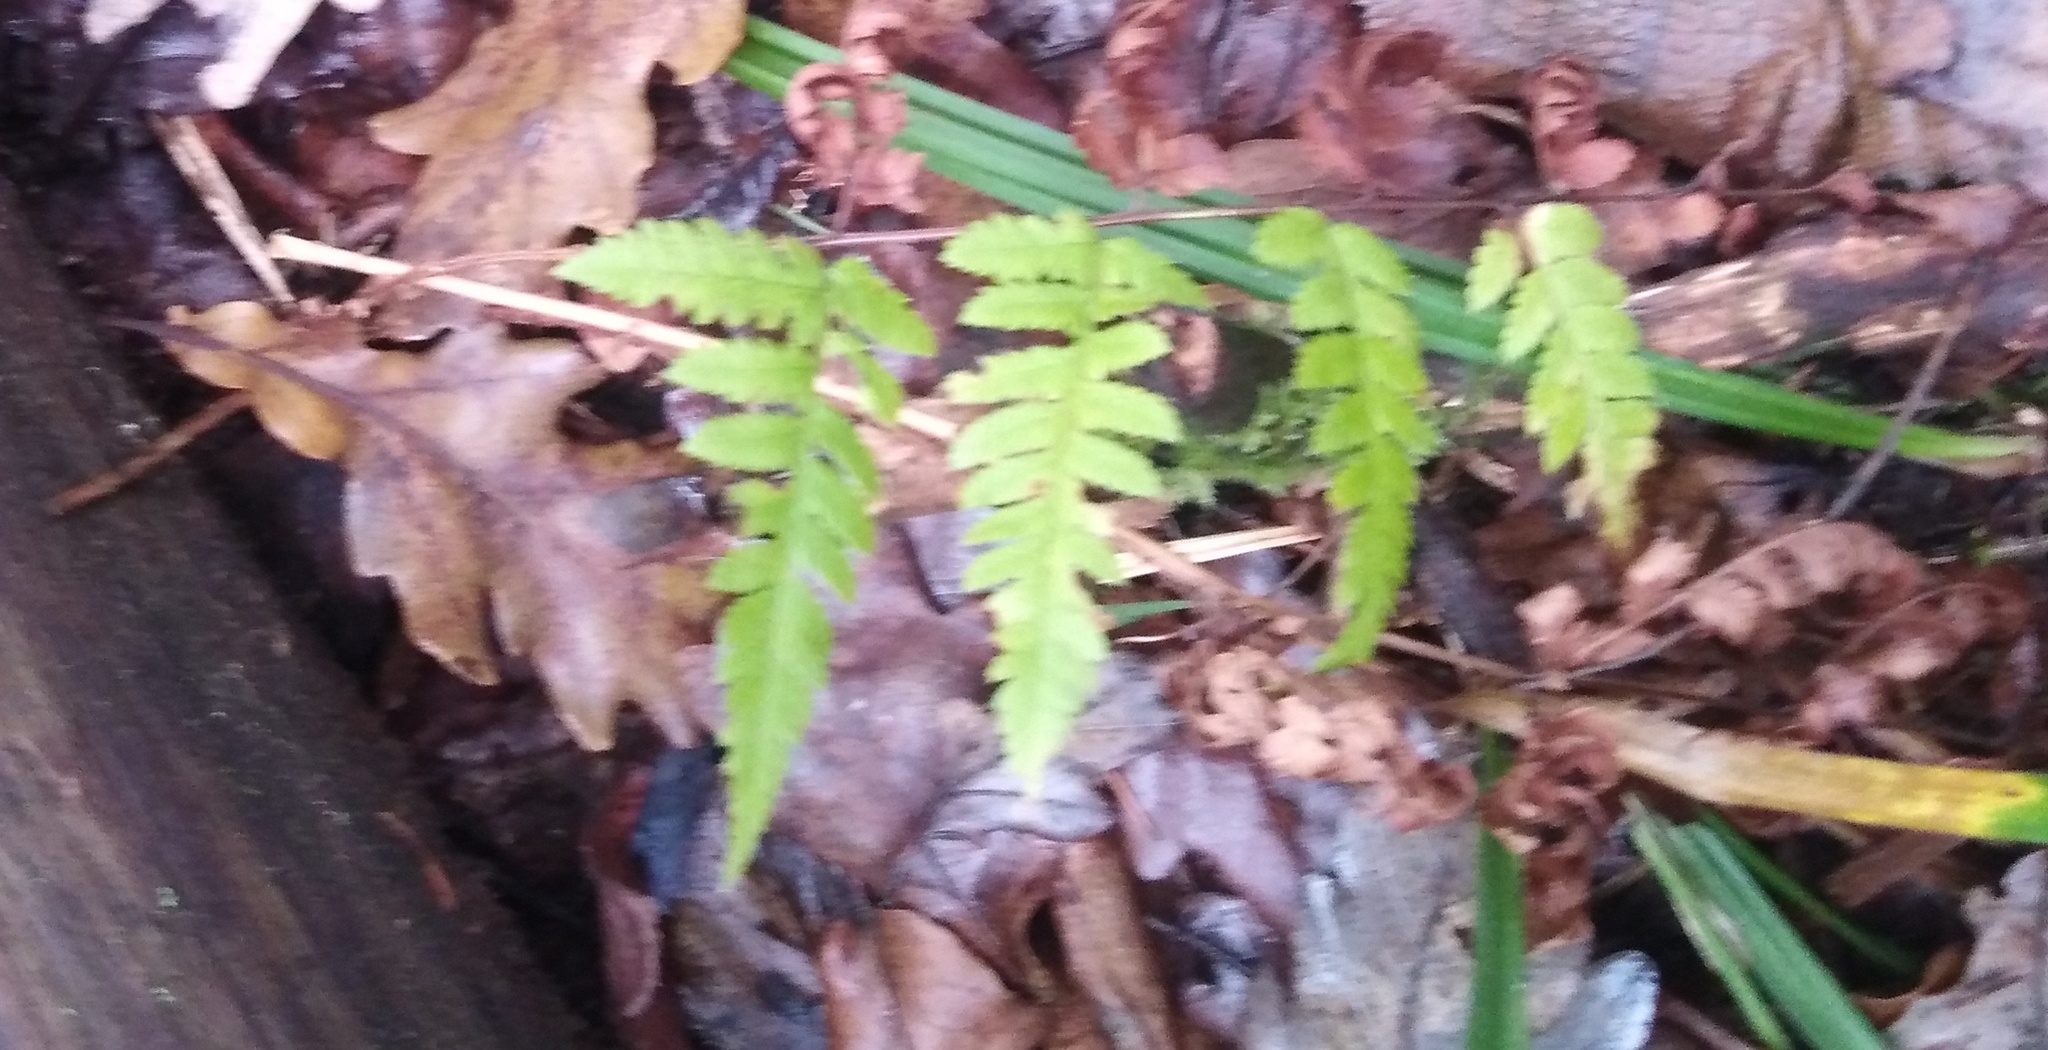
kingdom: Plantae
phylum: Tracheophyta
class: Polypodiopsida
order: Polypodiales
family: Dryopteridaceae
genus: Dryopteris
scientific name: Dryopteris carthusiana
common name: Narrow buckler-fern
